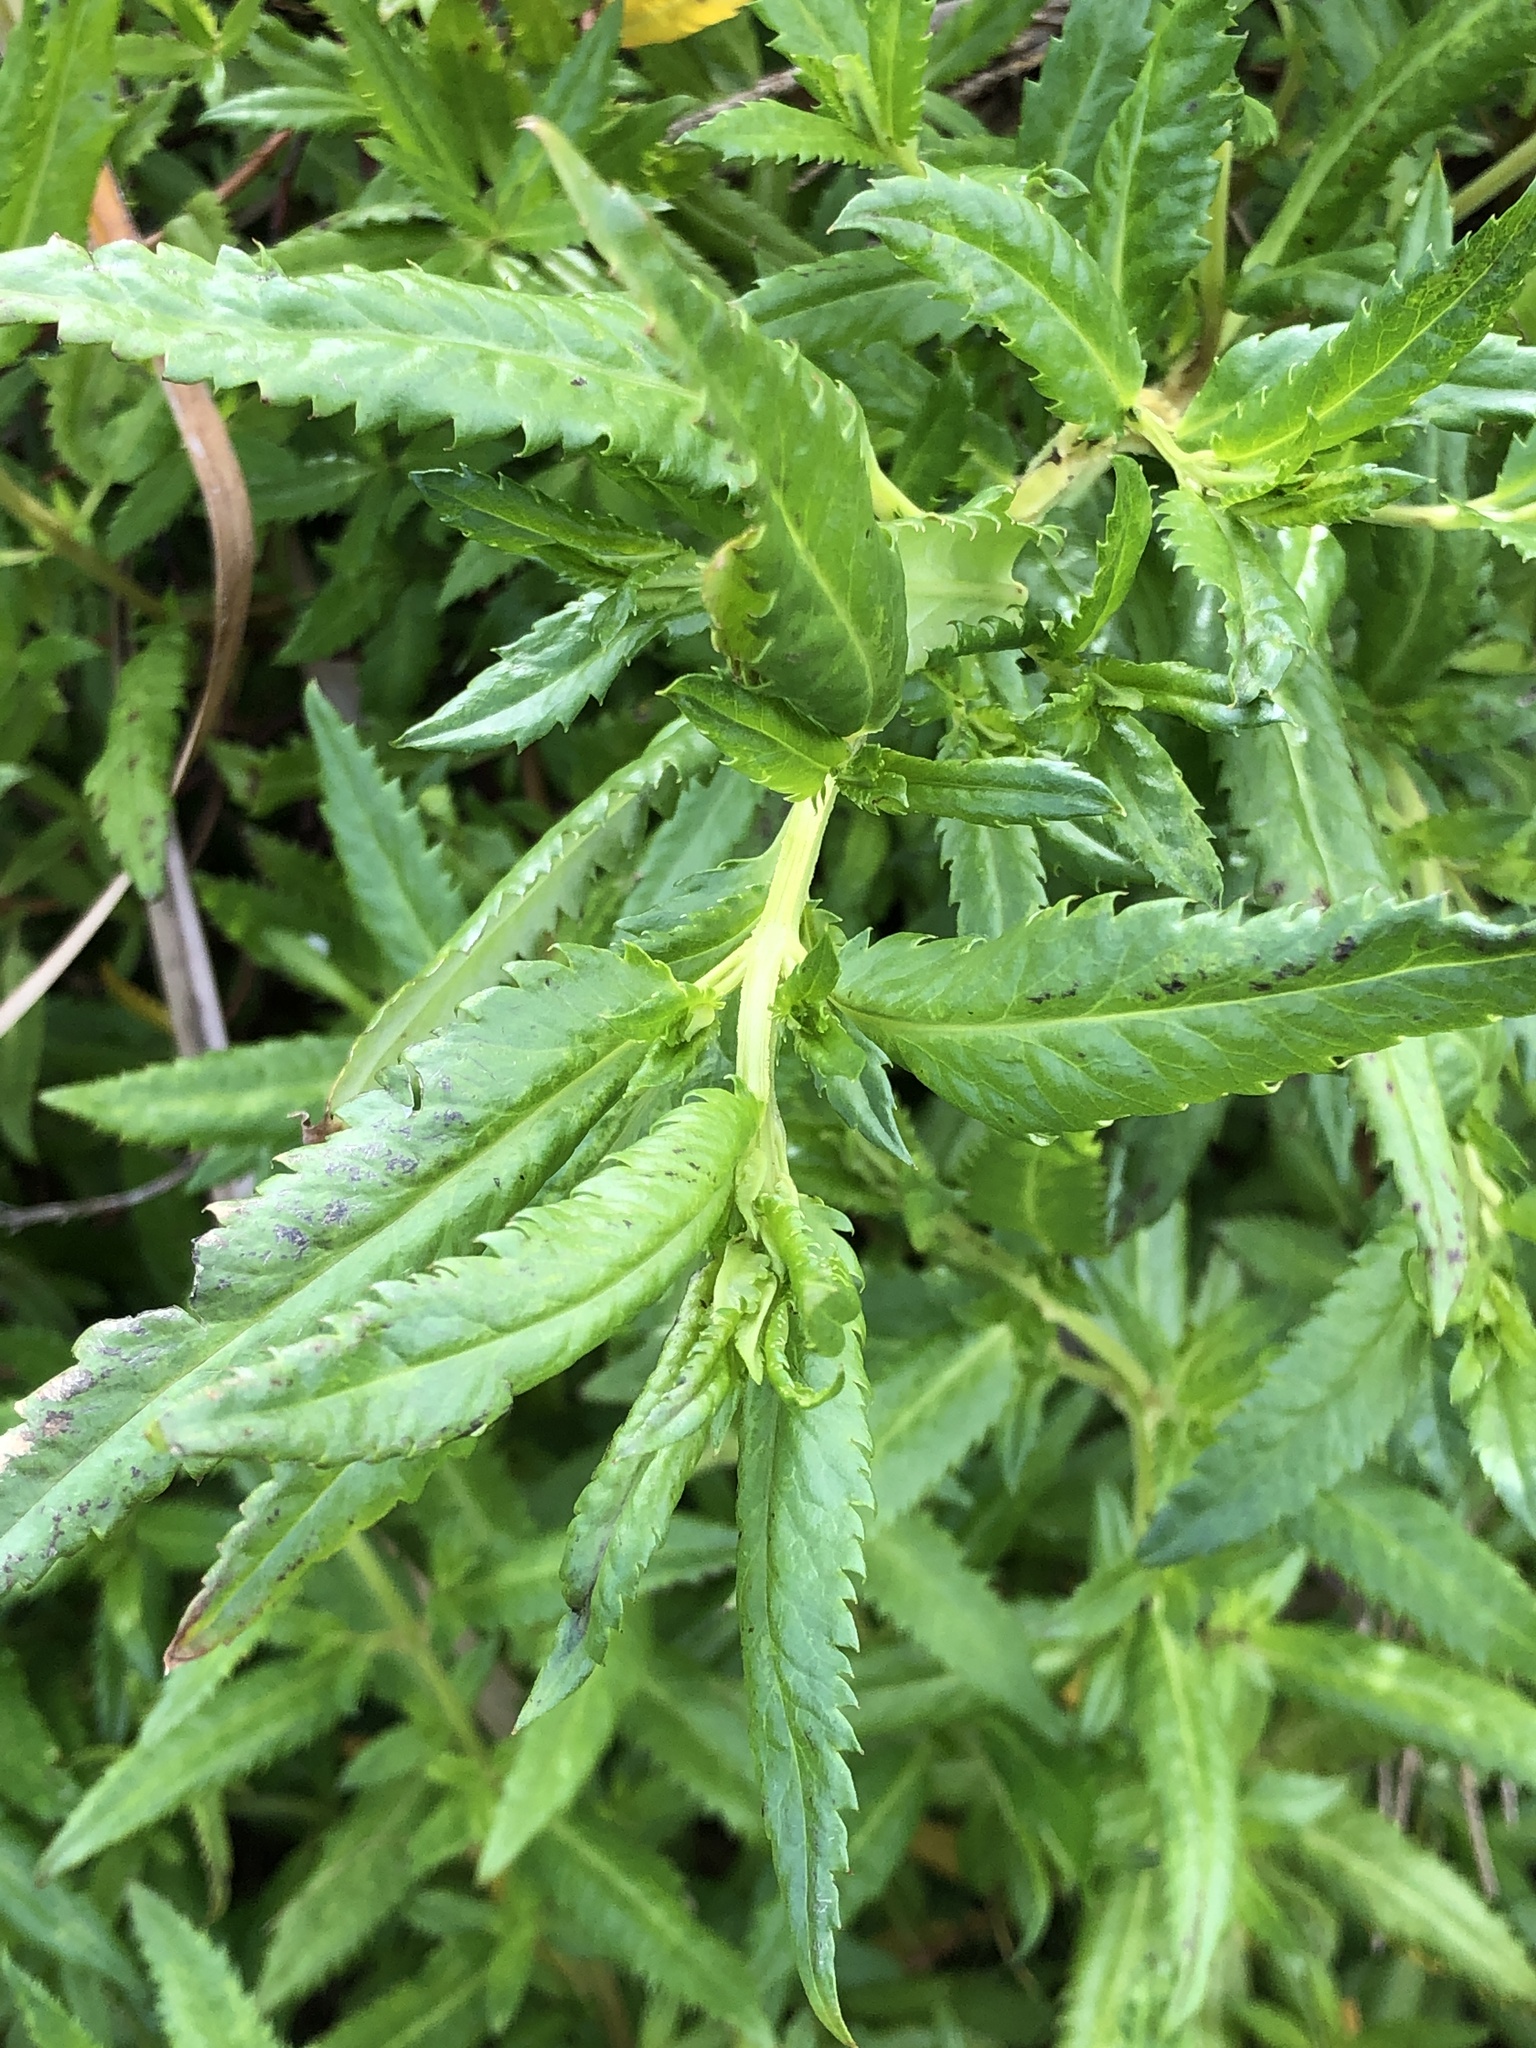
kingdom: Plantae
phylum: Tracheophyta
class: Magnoliopsida
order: Saxifragales
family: Haloragaceae
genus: Haloragis
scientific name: Haloragis erecta
